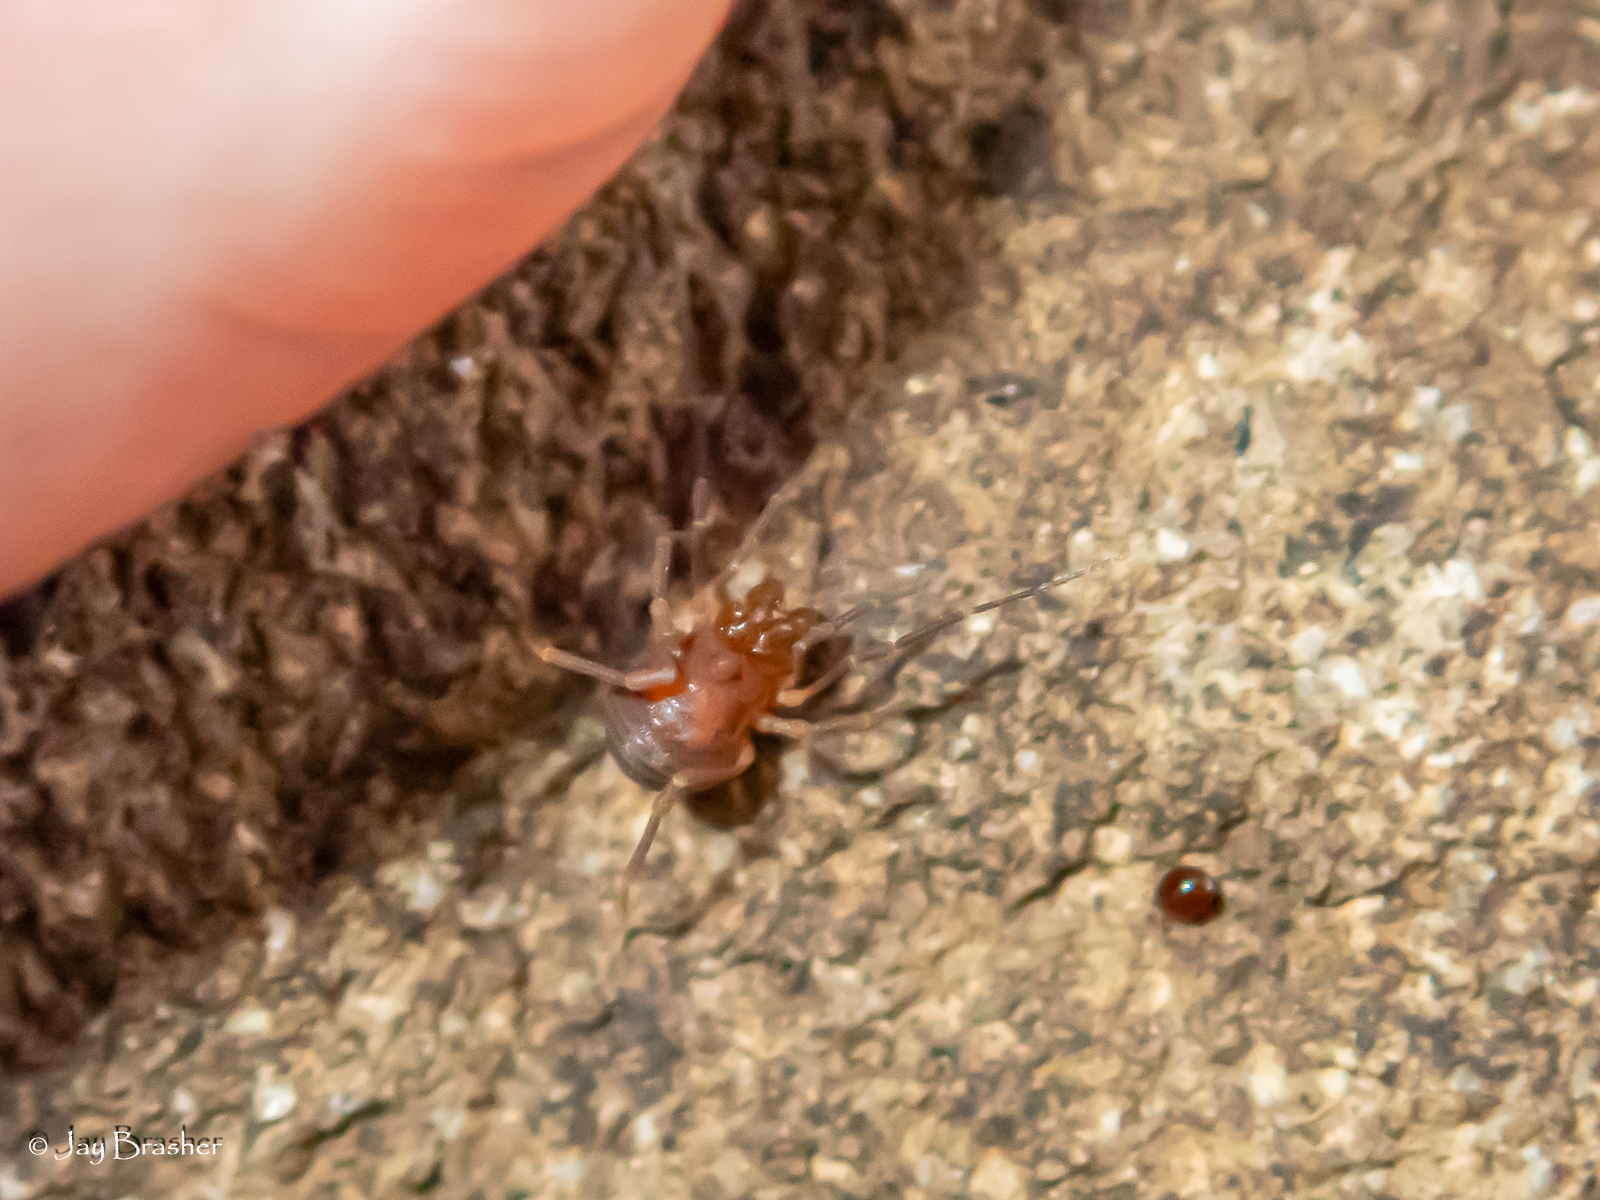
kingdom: Animalia
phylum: Arthropoda
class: Arachnida
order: Opiliones
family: Phalangodidae
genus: Bishopella
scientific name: Bishopella laciniosa
